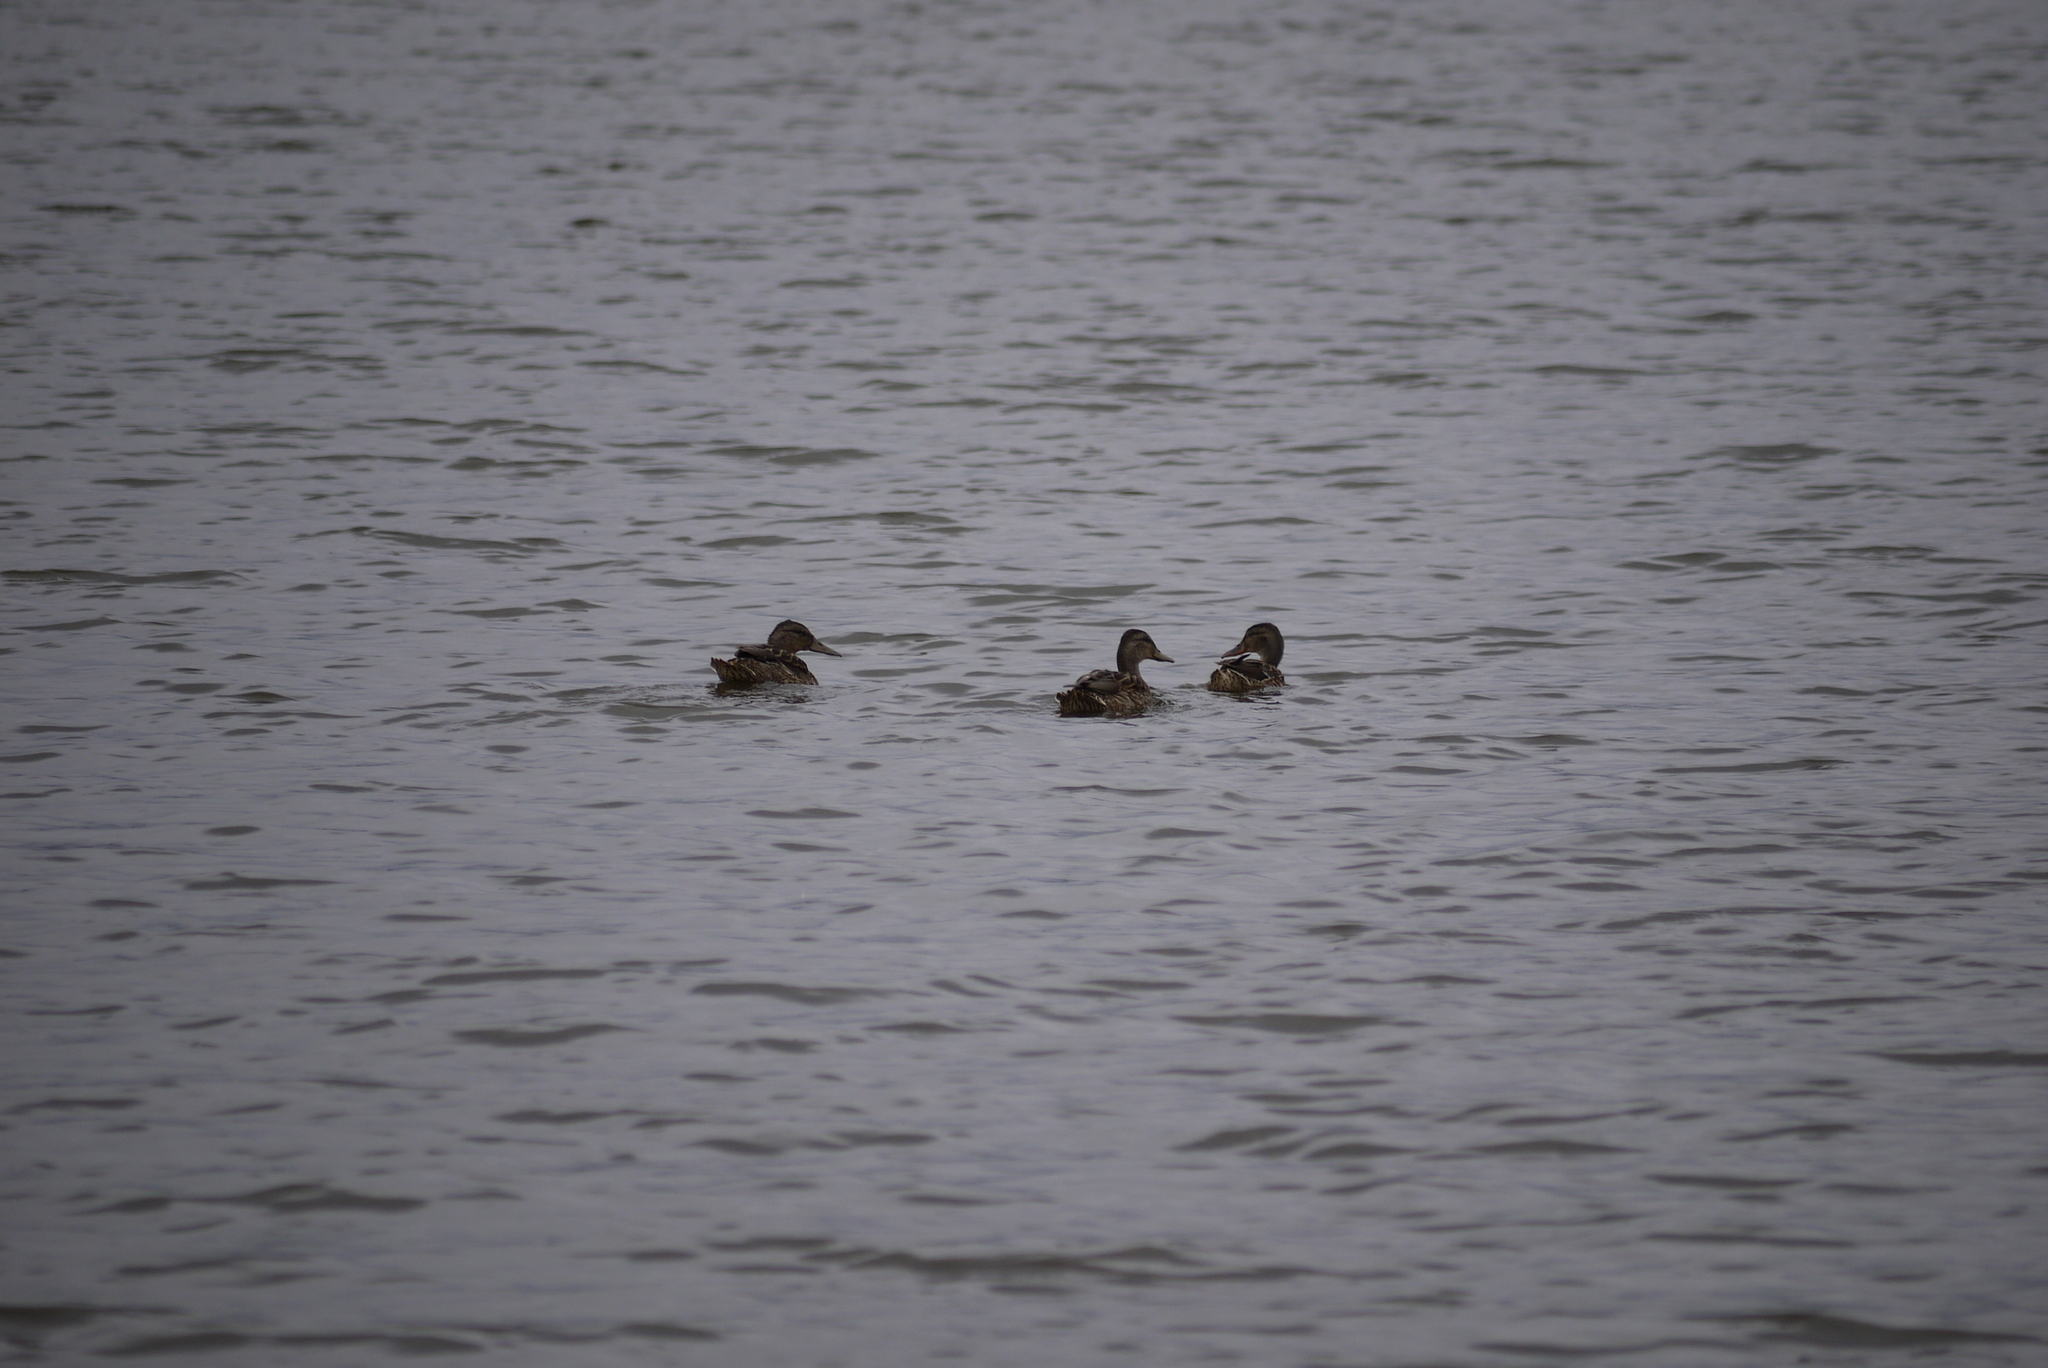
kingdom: Animalia
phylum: Chordata
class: Aves
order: Anseriformes
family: Anatidae
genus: Anas
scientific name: Anas platyrhynchos
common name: Mallard
